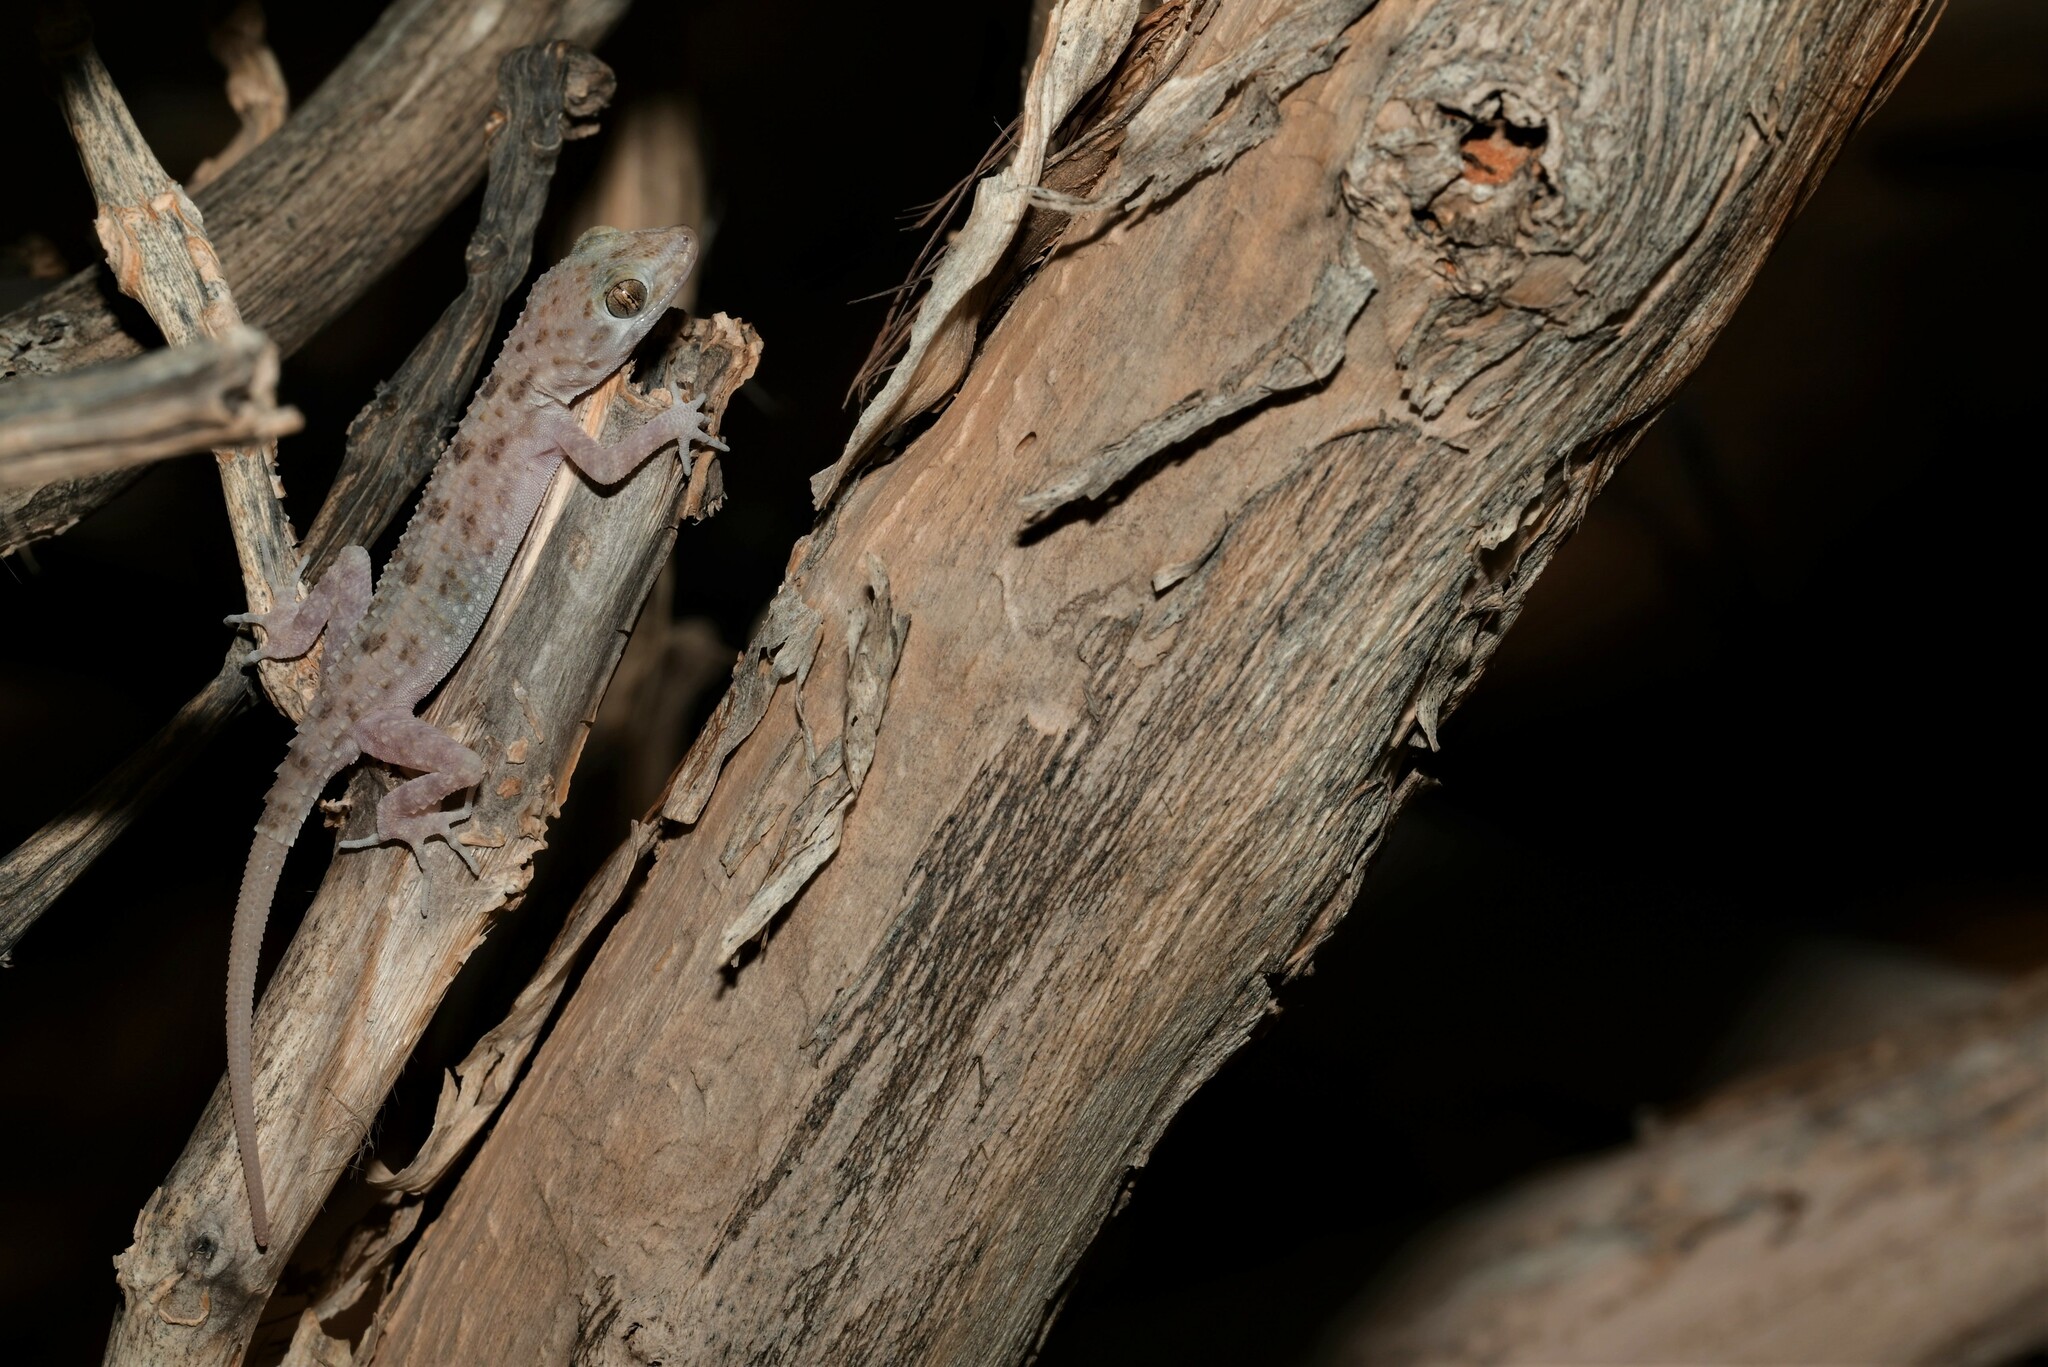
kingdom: Animalia
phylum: Chordata
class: Squamata
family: Gekkonidae
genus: Cyrtopodion
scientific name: Cyrtopodion scabrum
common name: Rough-tailed gecko
